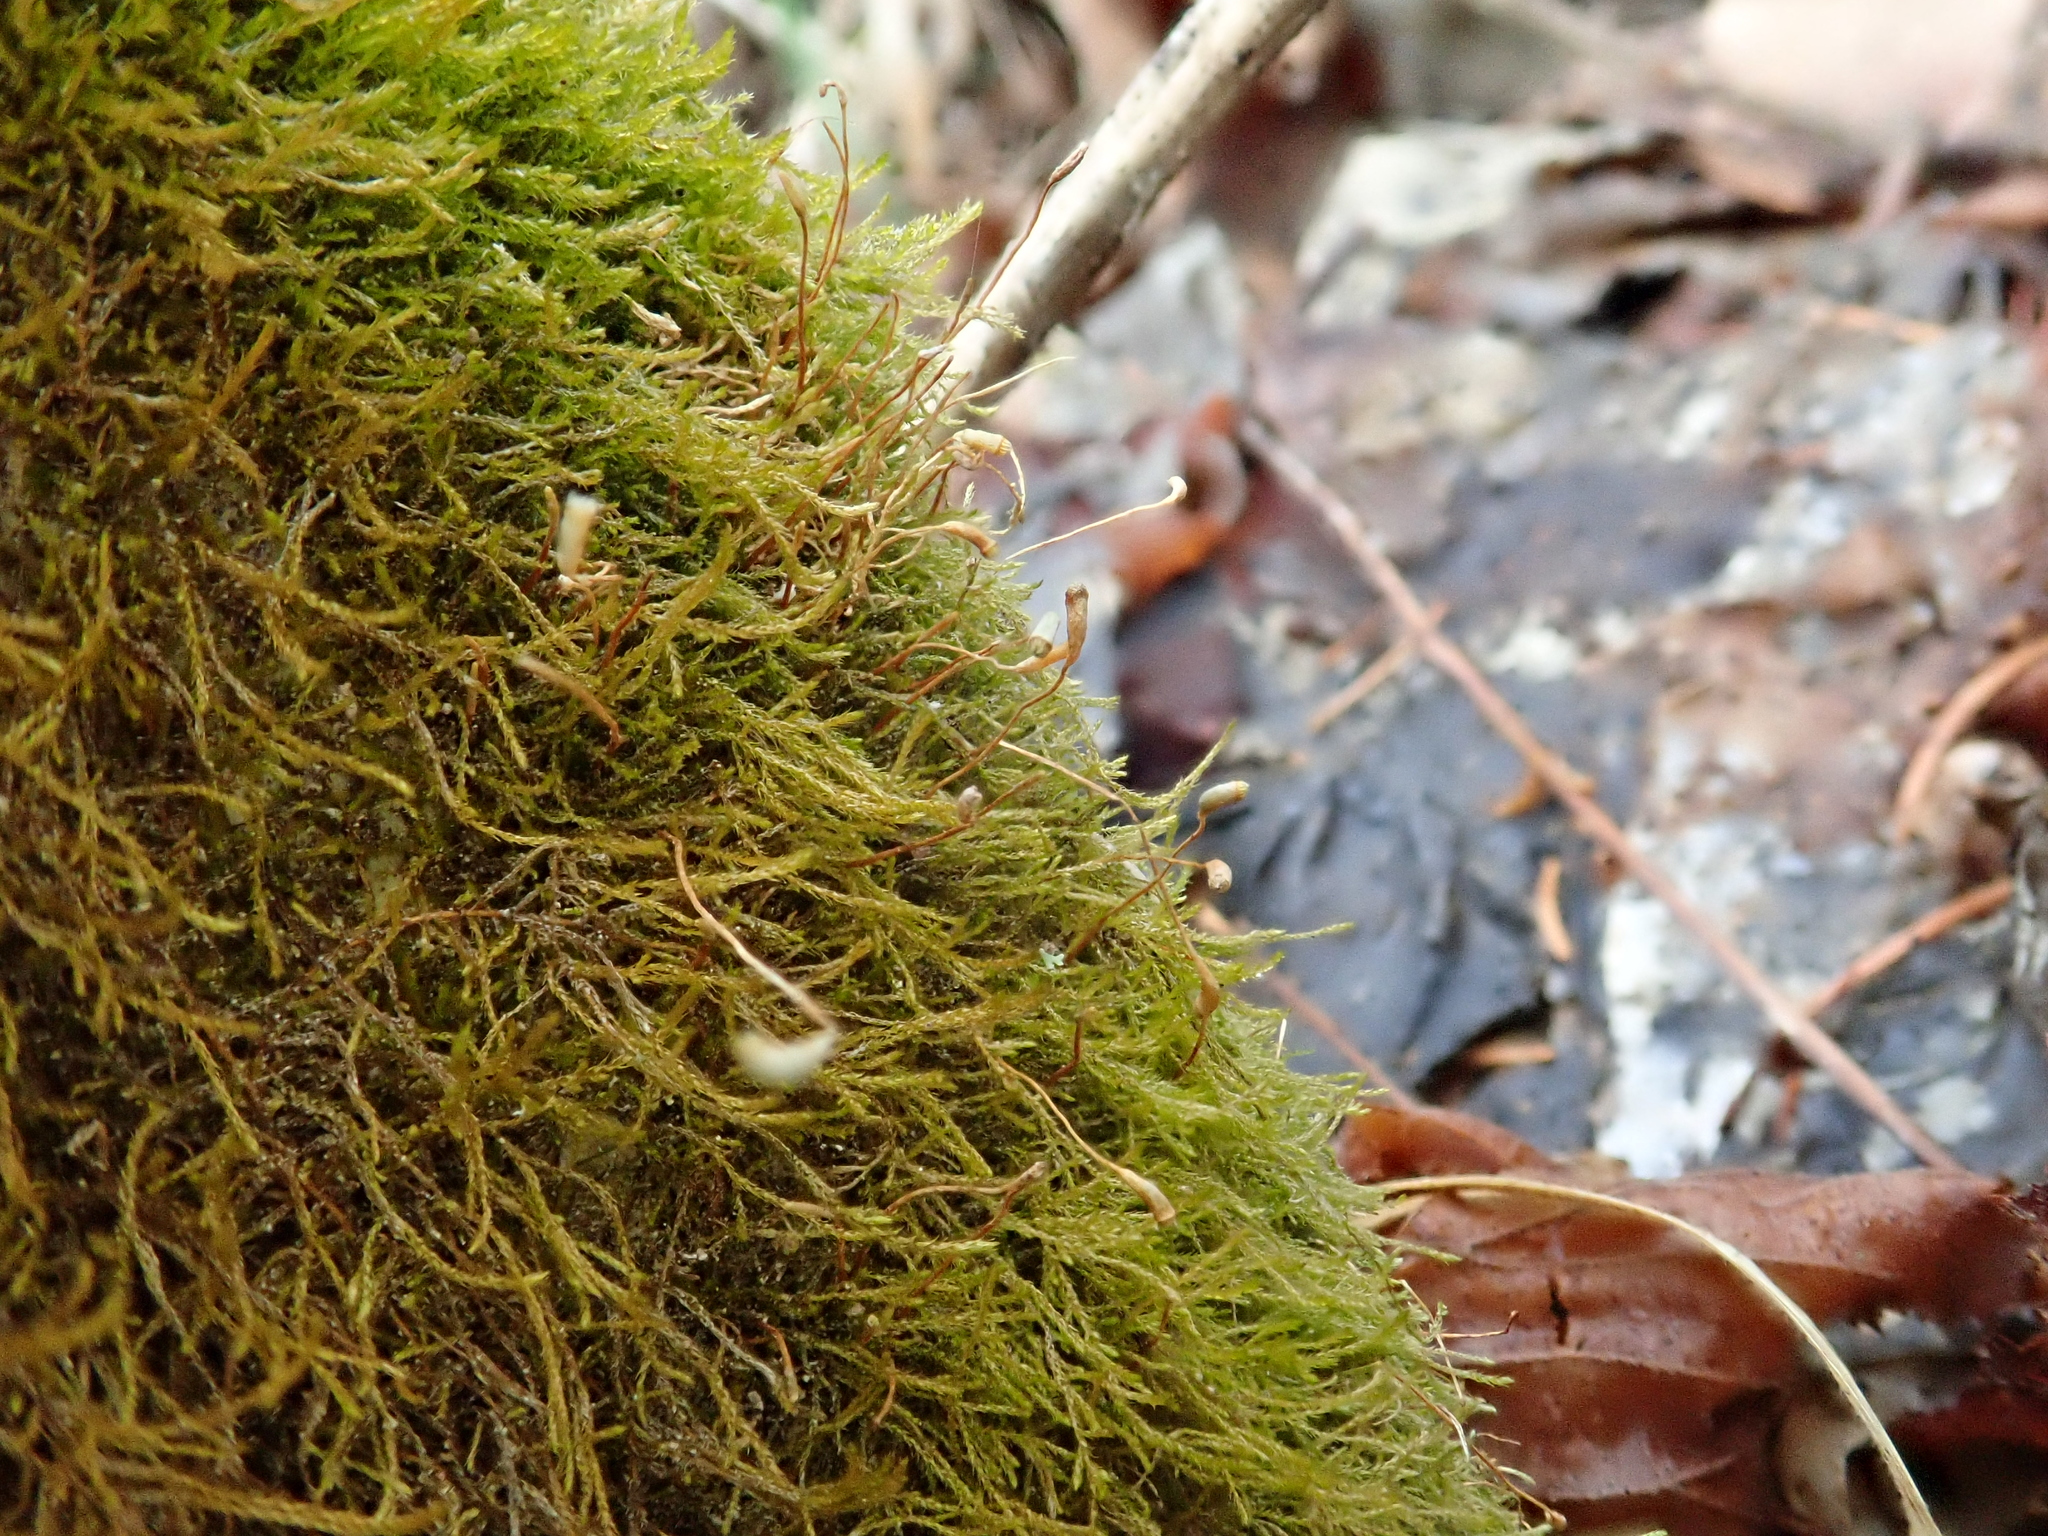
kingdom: Plantae
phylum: Bryophyta
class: Bryopsida
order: Hypnales
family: Amblystegiaceae
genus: Amblystegium
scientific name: Amblystegium serpens
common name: Jurkatzka's feather moss
